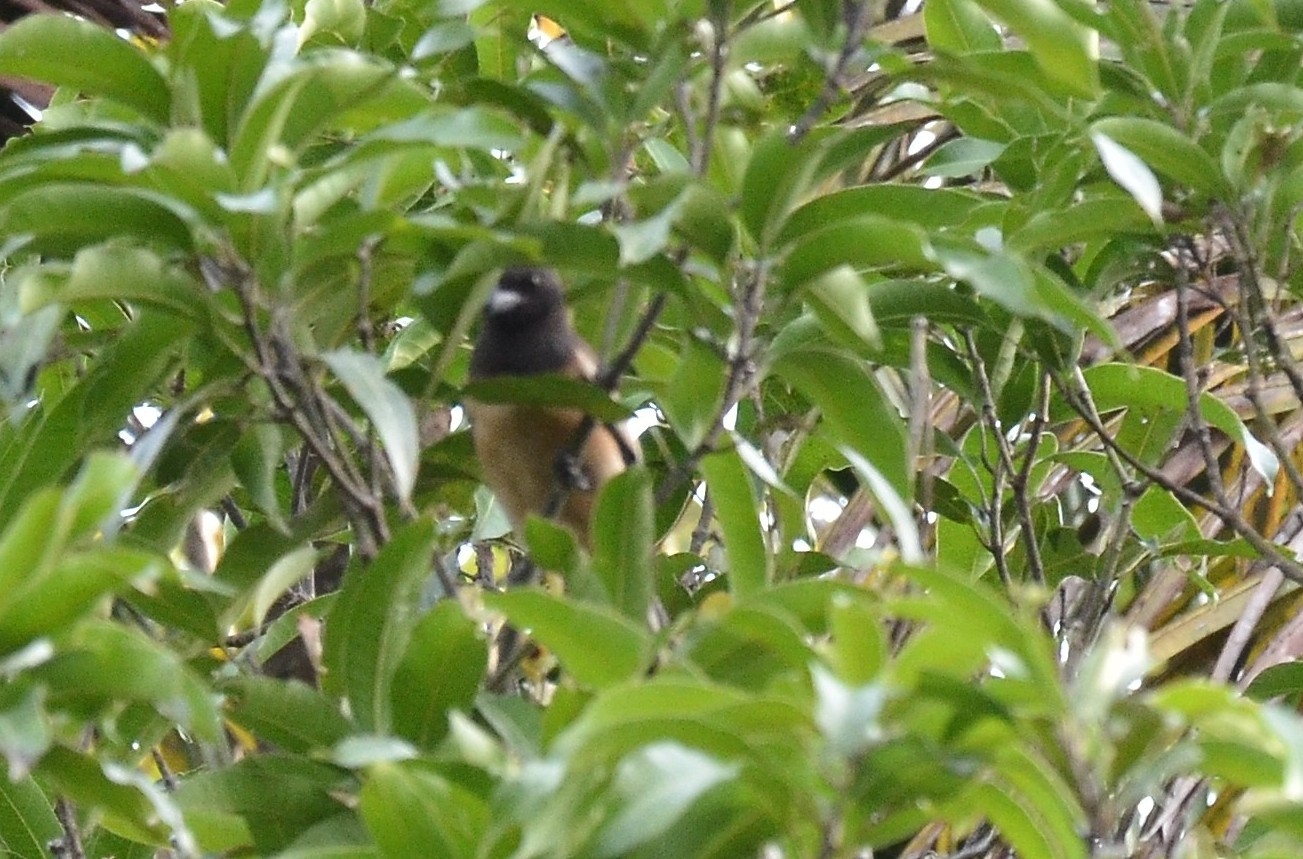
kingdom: Animalia
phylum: Chordata
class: Aves
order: Passeriformes
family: Corvidae
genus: Dendrocitta
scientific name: Dendrocitta vagabunda
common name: Rufous treepie
